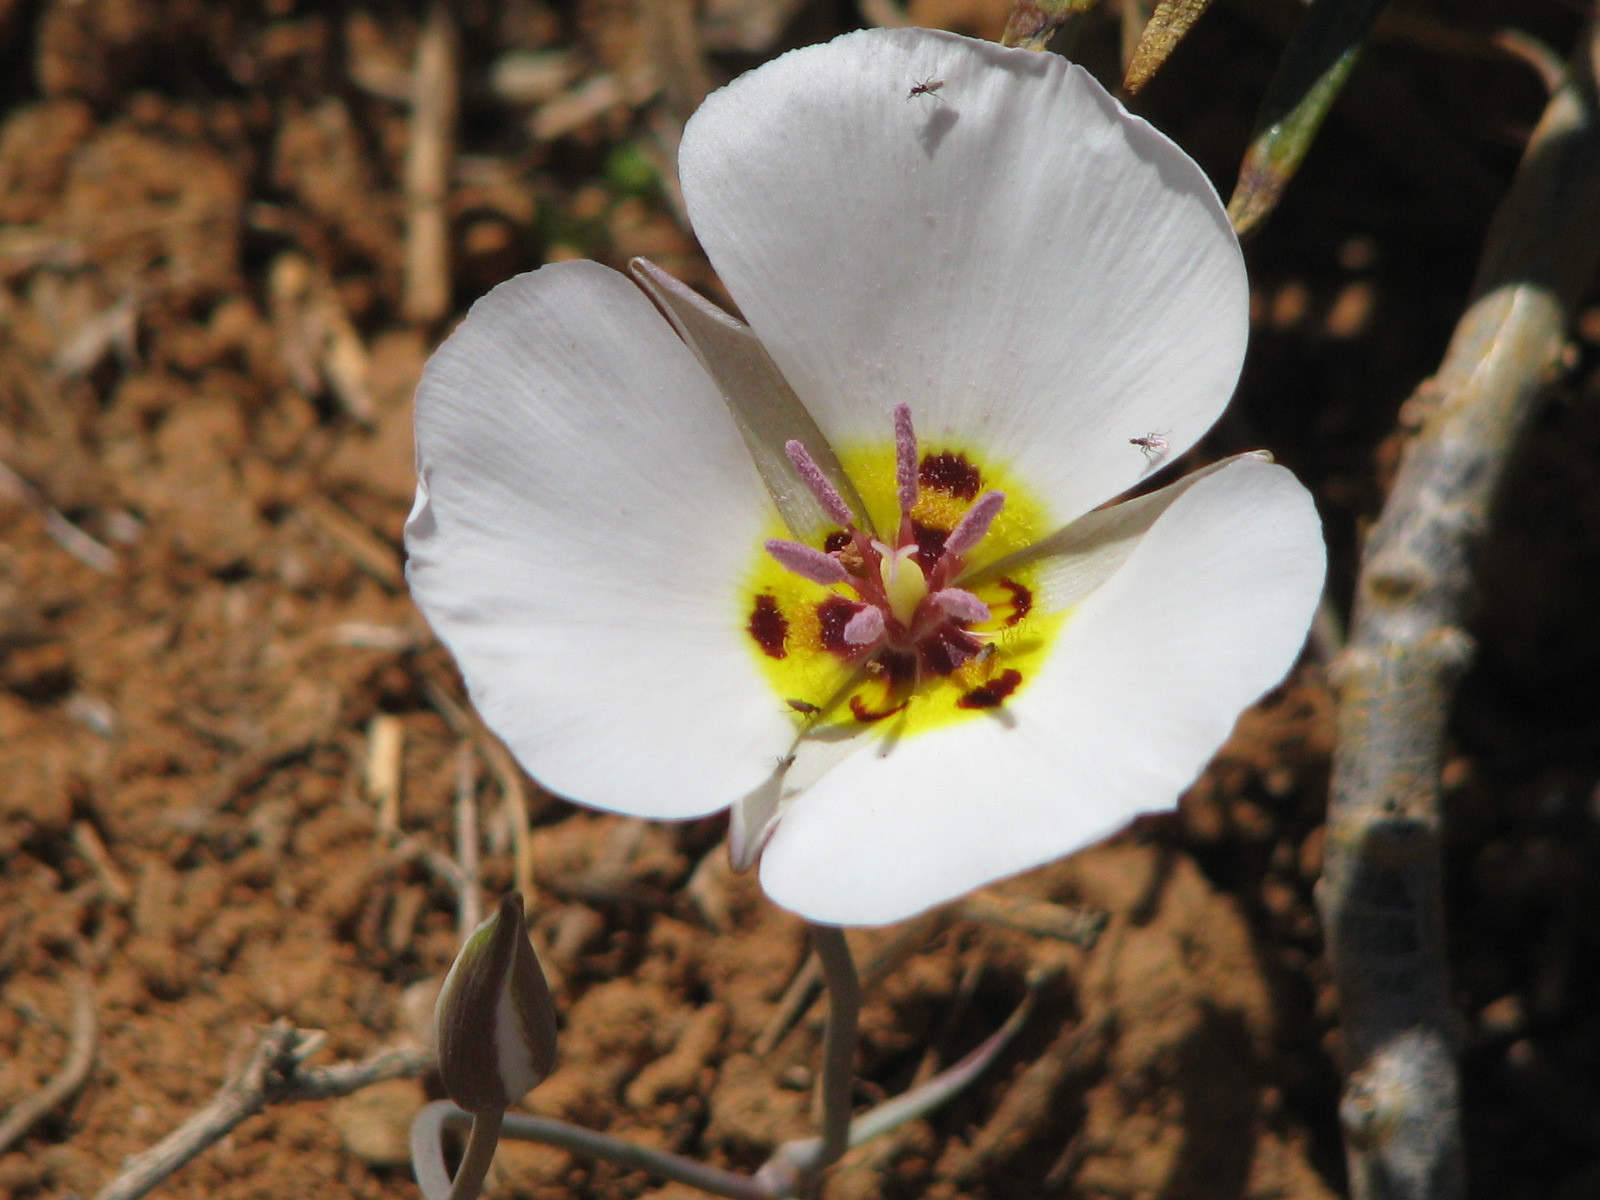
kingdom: Plantae
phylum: Tracheophyta
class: Liliopsida
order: Liliales
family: Liliaceae
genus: Calochortus
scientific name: Calochortus flexuosus
